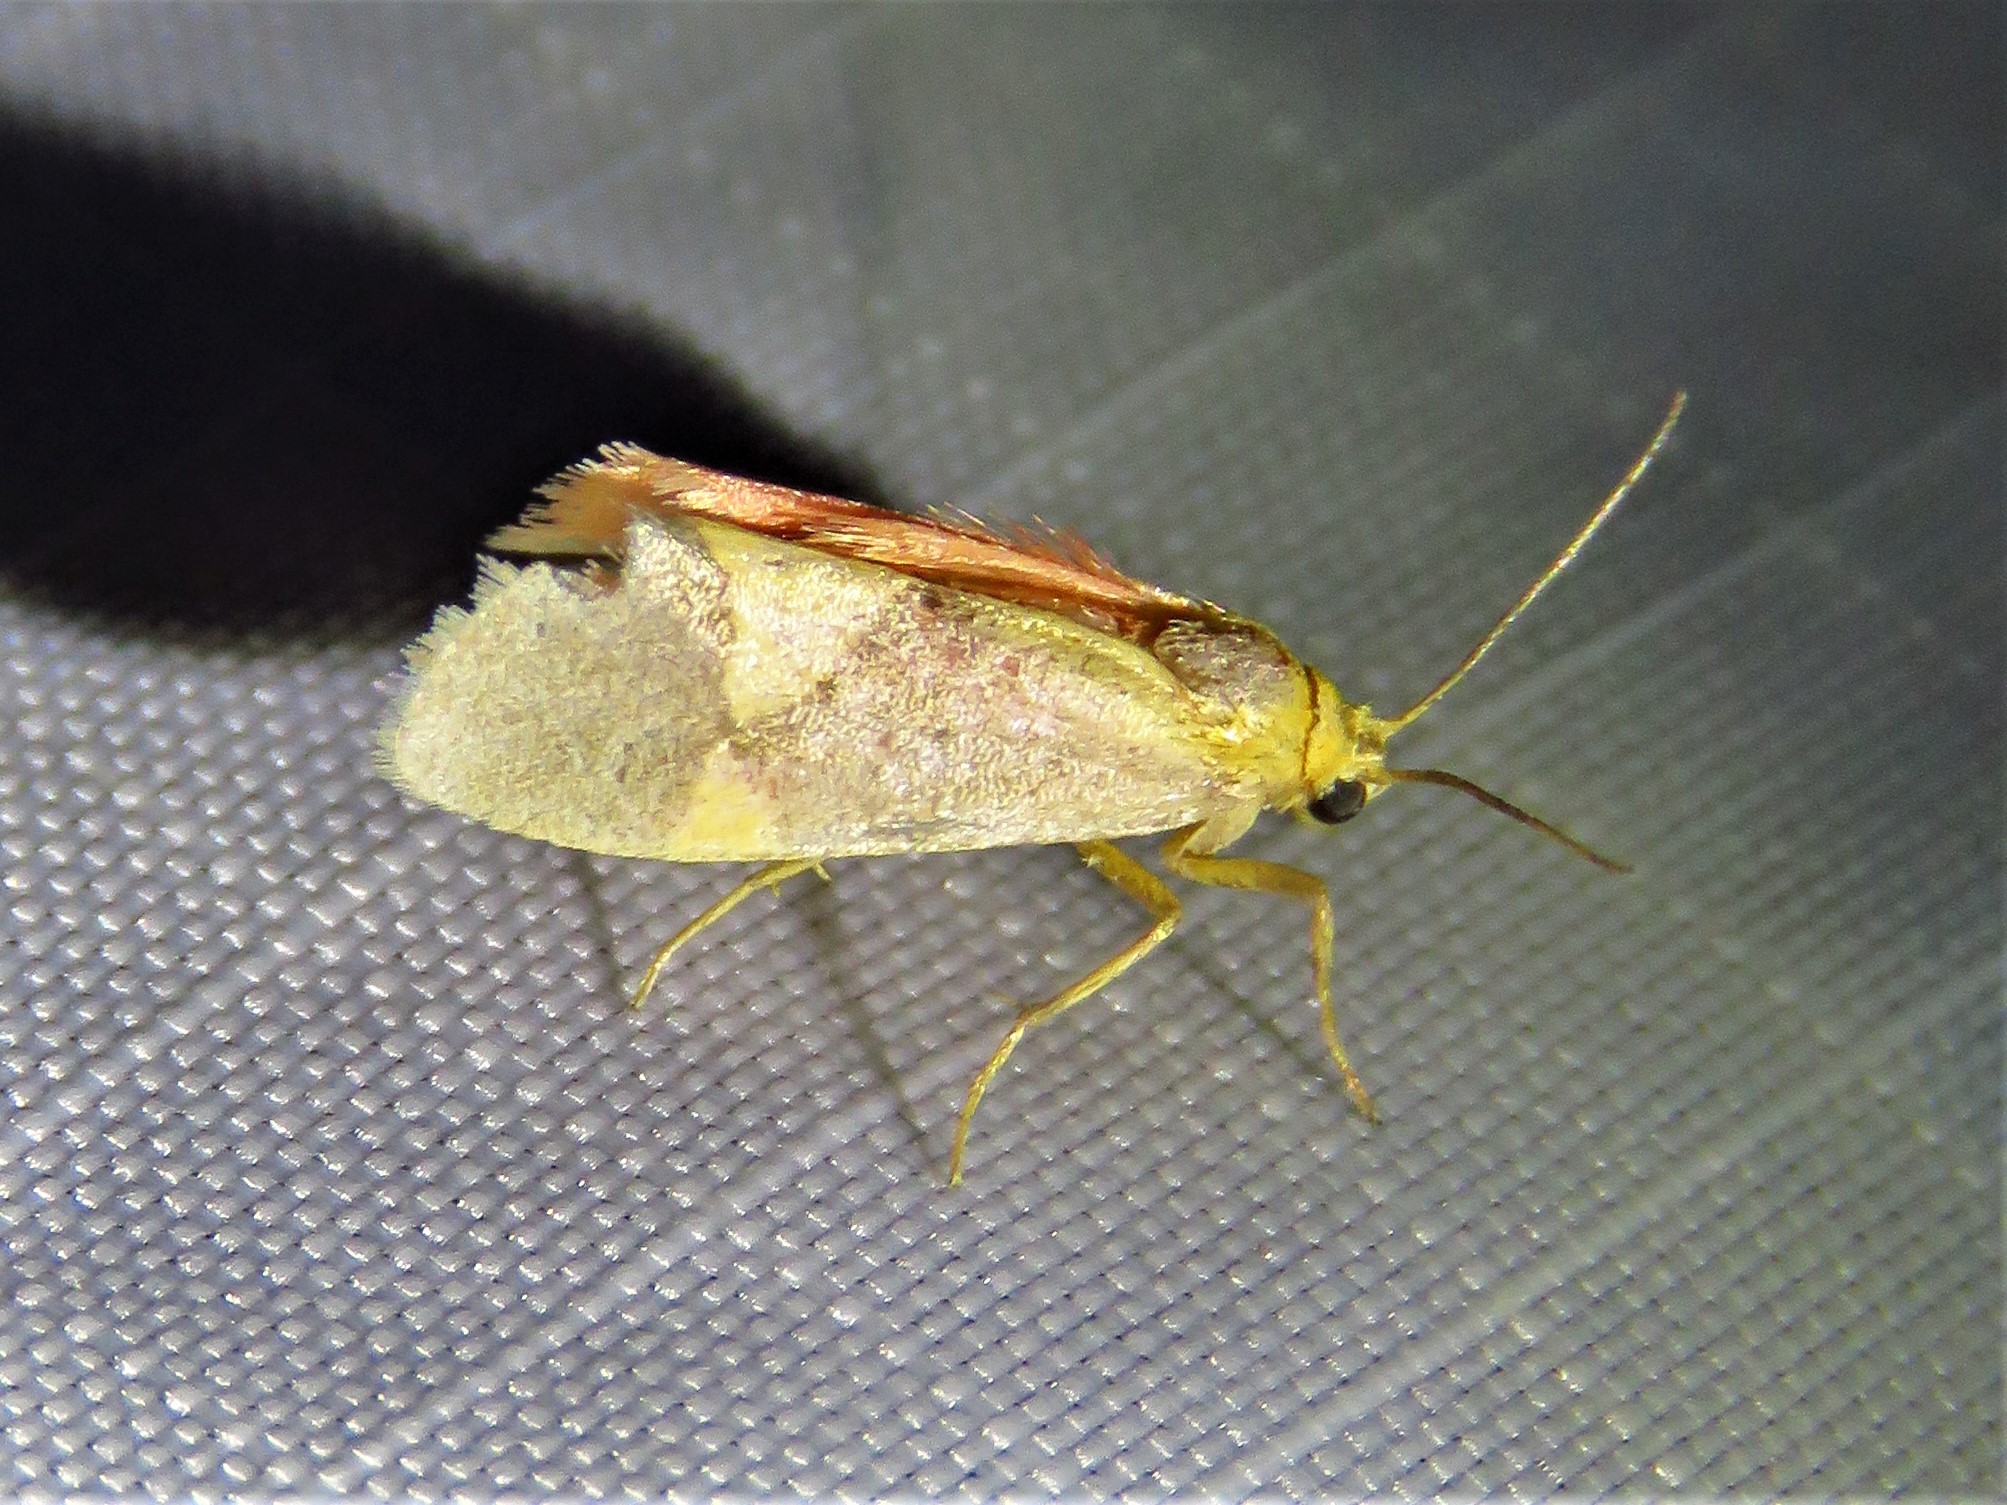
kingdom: Animalia
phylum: Arthropoda
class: Insecta
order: Lepidoptera
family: Erebidae
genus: Cisthene
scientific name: Cisthene unifascia
